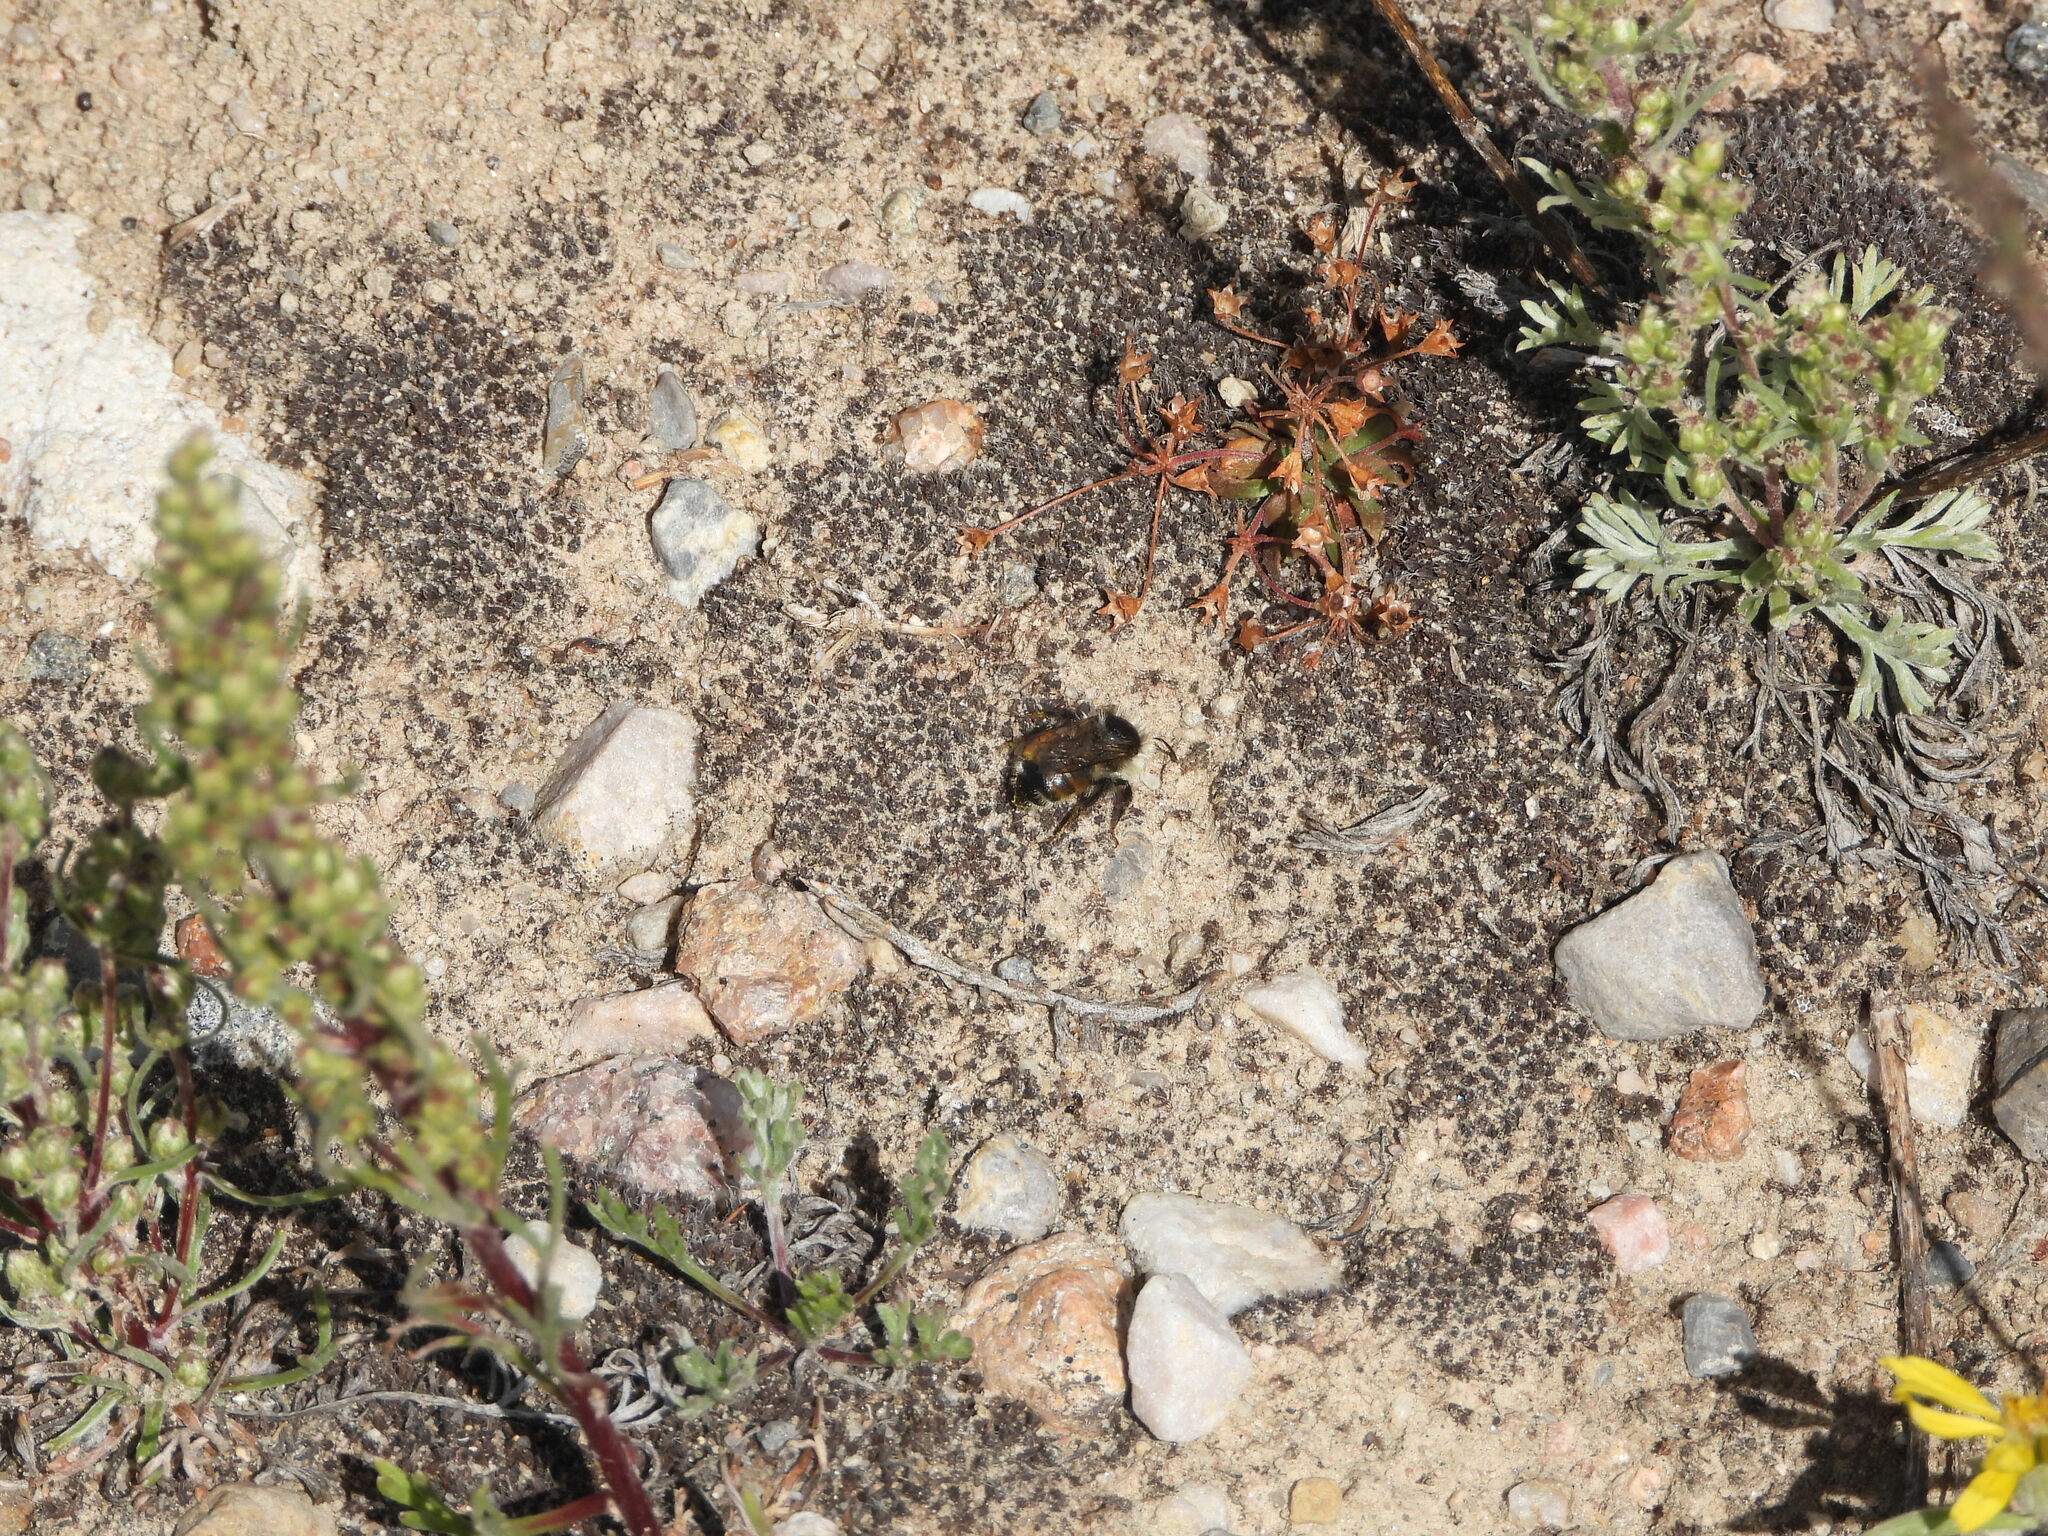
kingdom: Plantae
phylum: Tracheophyta
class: Magnoliopsida
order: Asterales
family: Asteraceae
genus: Artemisia
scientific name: Artemisia campestris
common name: Field wormwood
